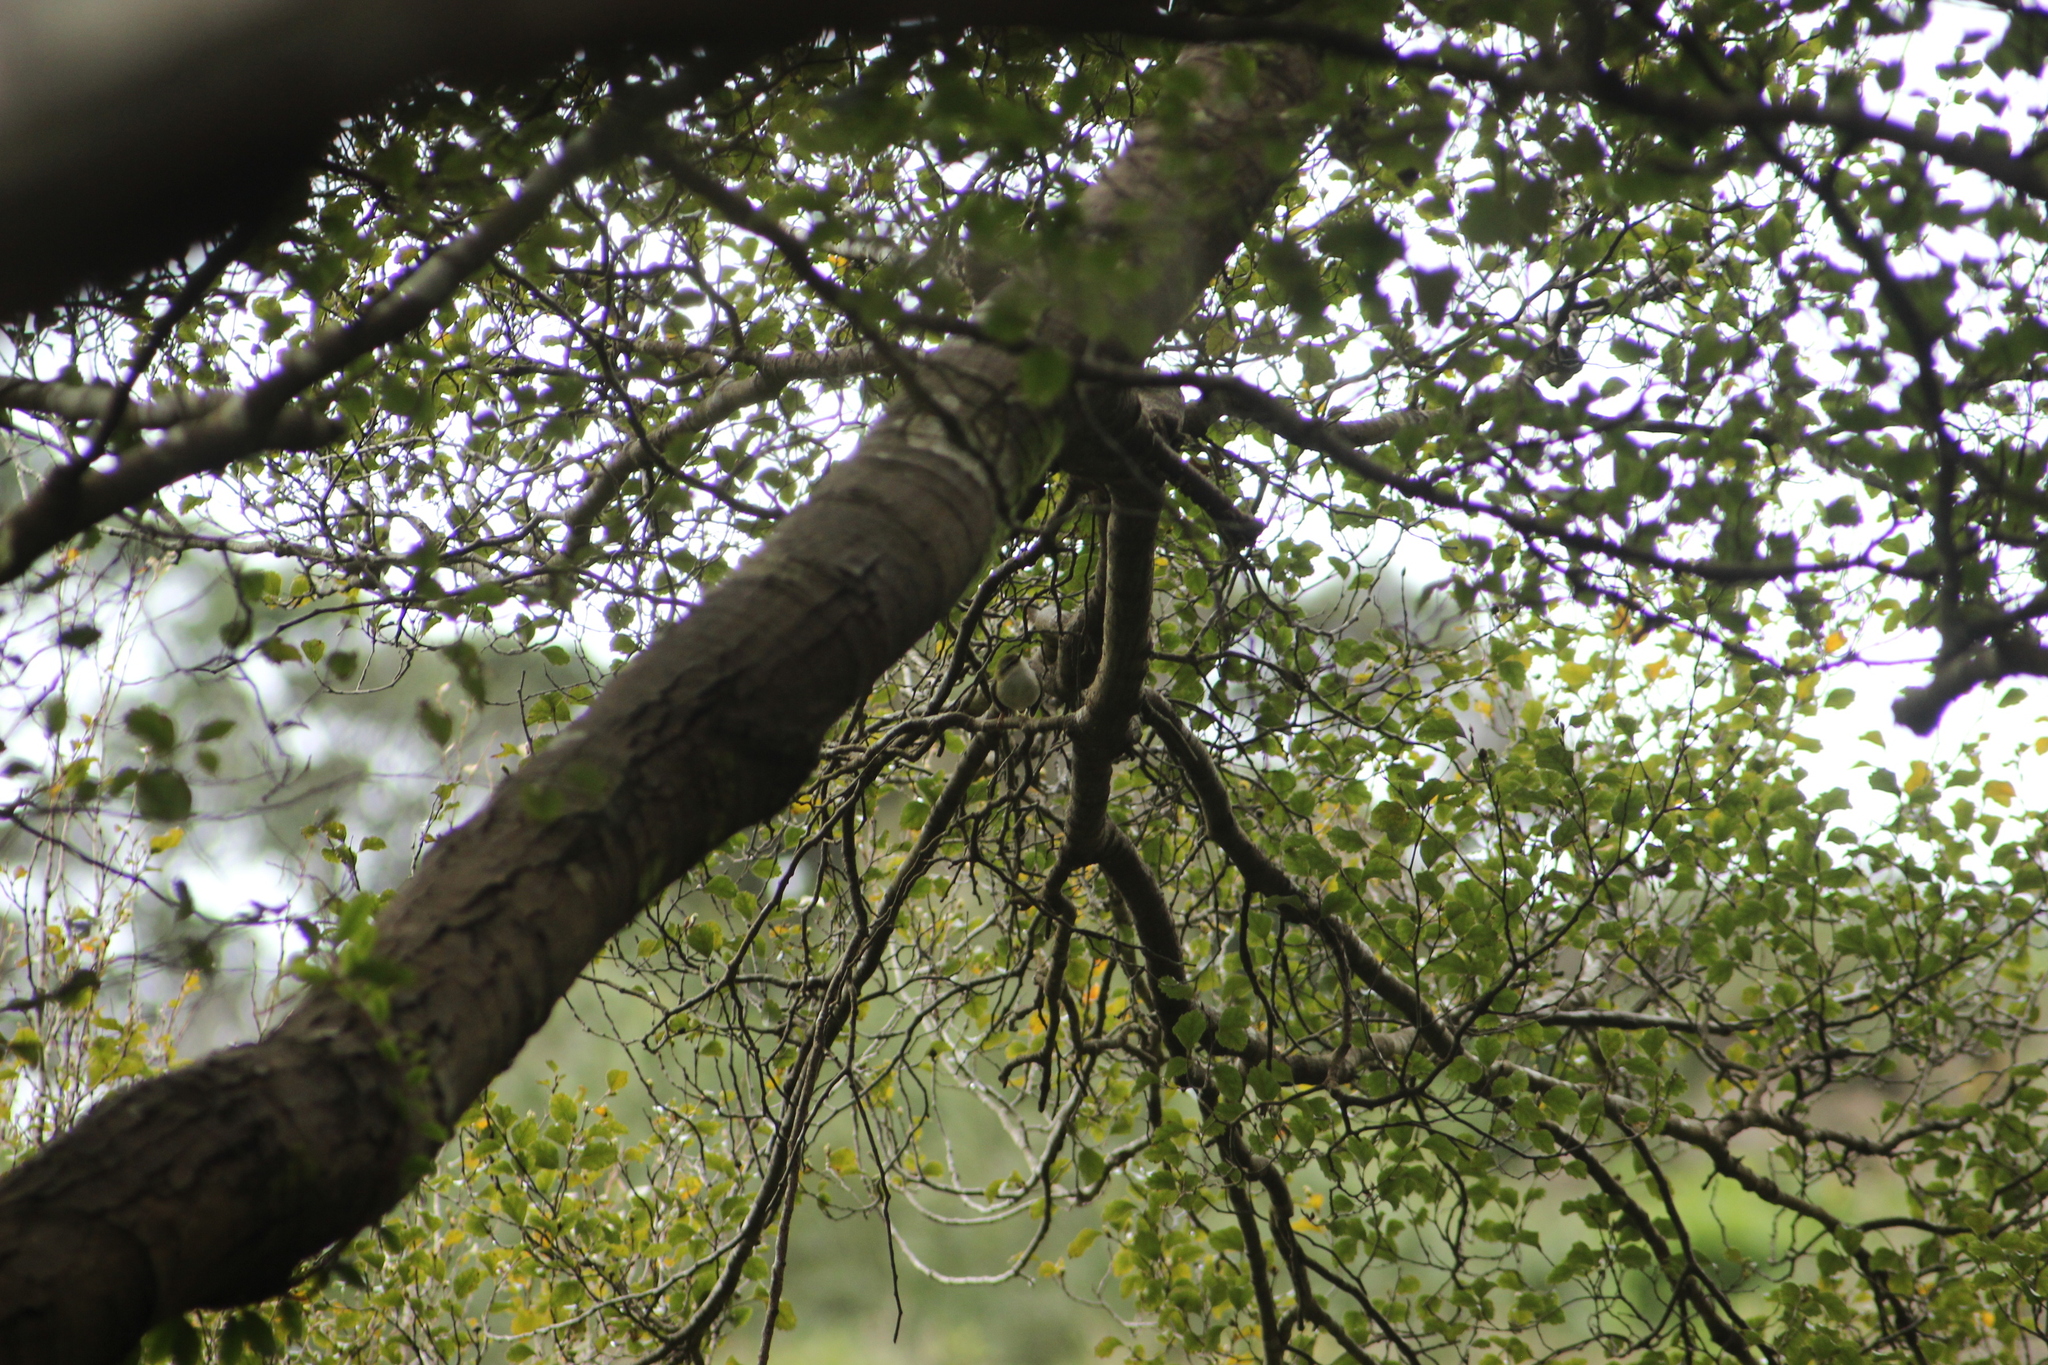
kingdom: Animalia
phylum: Chordata
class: Aves
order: Passeriformes
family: Acanthisittidae
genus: Acanthisitta
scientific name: Acanthisitta chloris
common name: Rifleman
